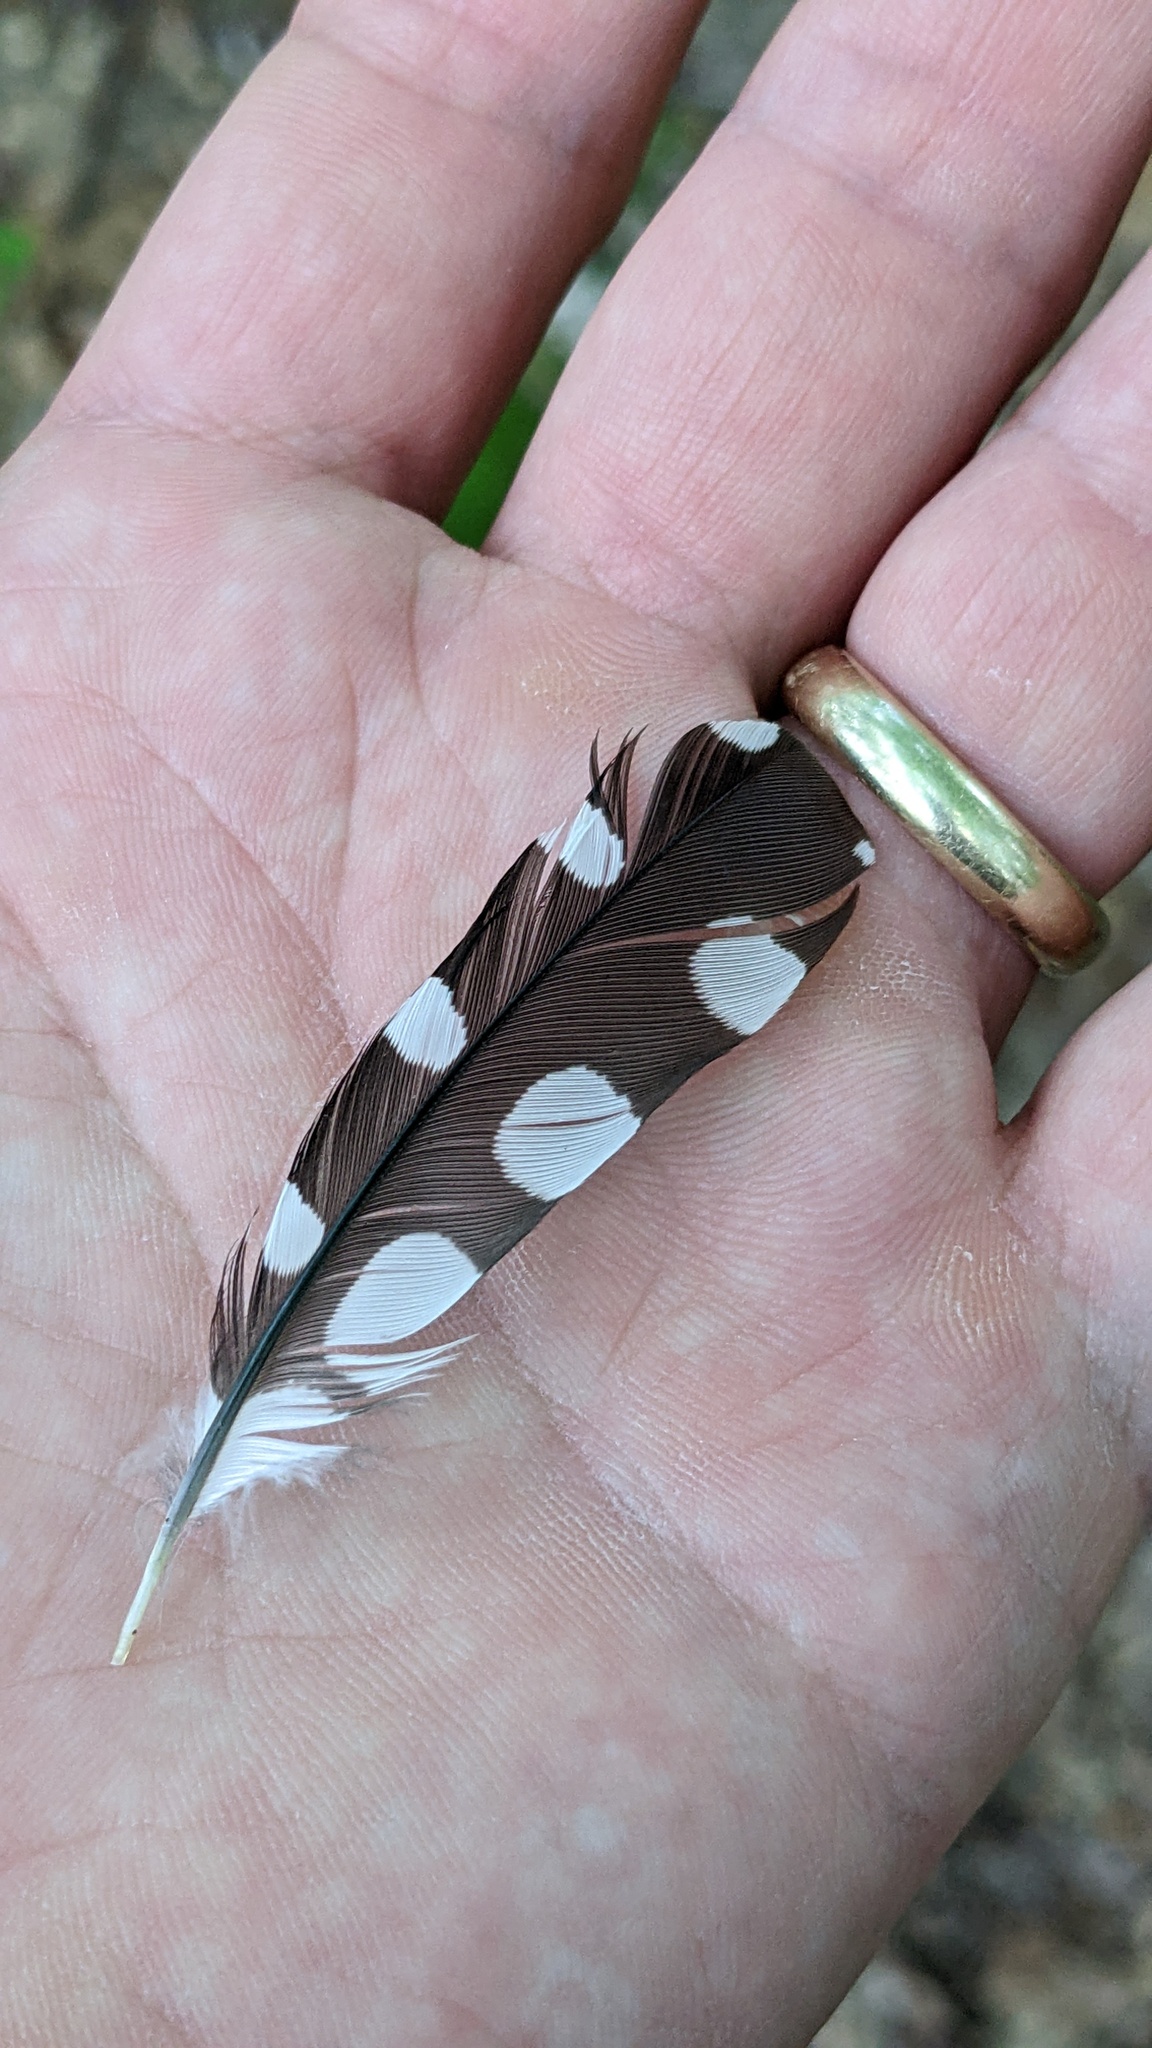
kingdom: Animalia
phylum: Chordata
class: Aves
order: Piciformes
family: Picidae
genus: Dryobates
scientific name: Dryobates pubescens
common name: Downy woodpecker
